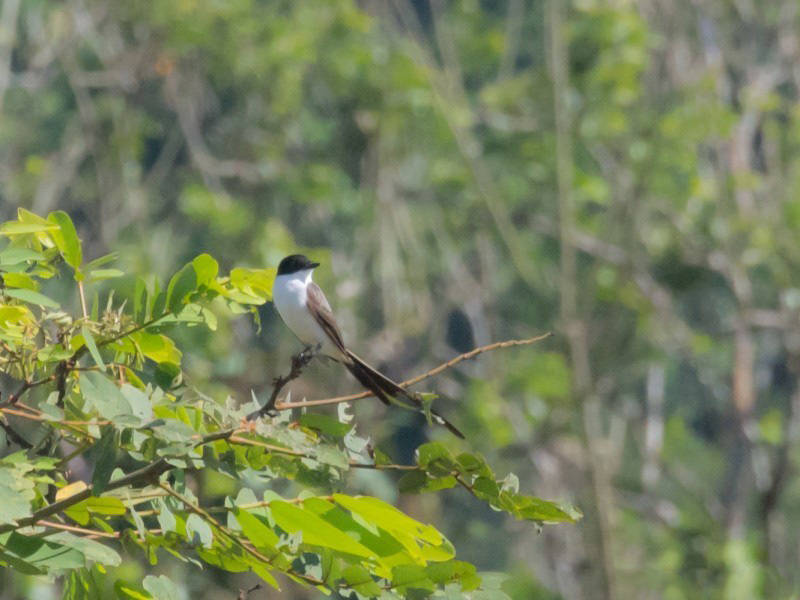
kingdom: Animalia
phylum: Chordata
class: Aves
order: Passeriformes
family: Tyrannidae
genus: Tyrannus
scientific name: Tyrannus savana
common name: Fork-tailed flycatcher
